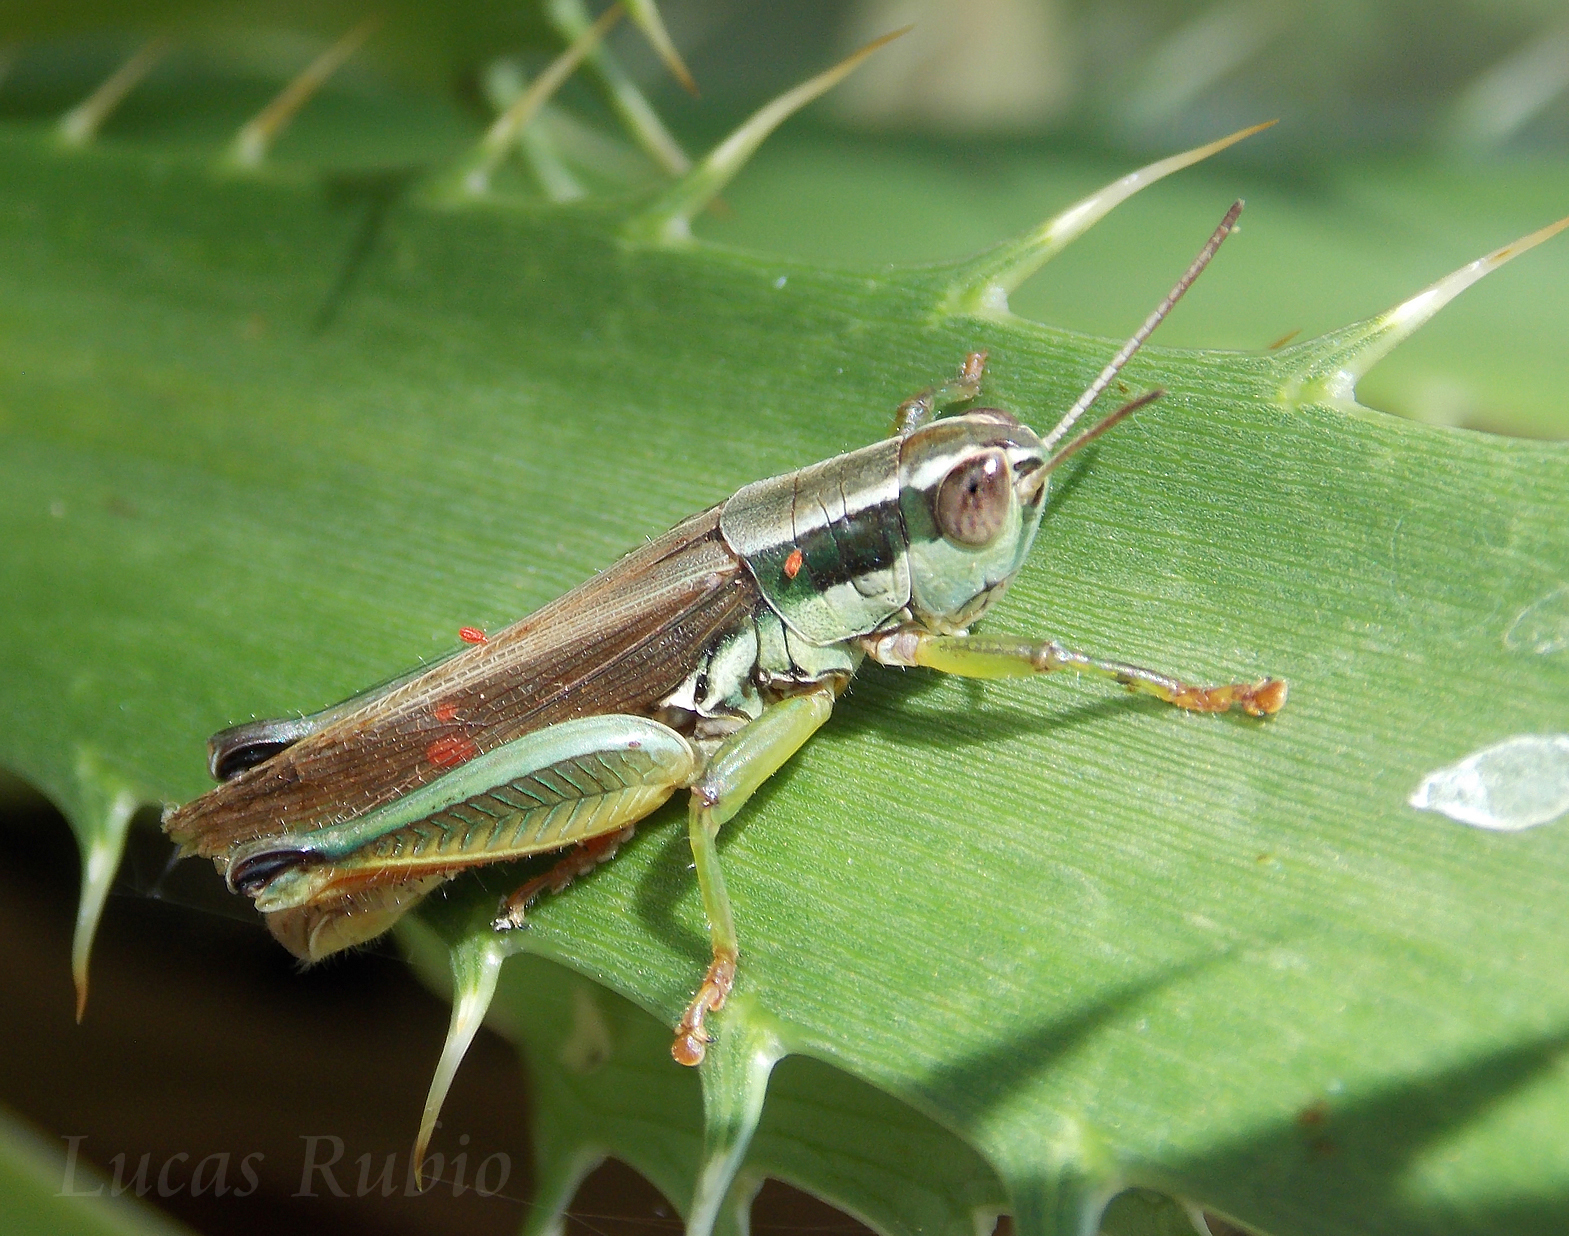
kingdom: Animalia
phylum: Arthropoda
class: Insecta
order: Orthoptera
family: Acrididae
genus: Scotussa
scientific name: Scotussa cliens
